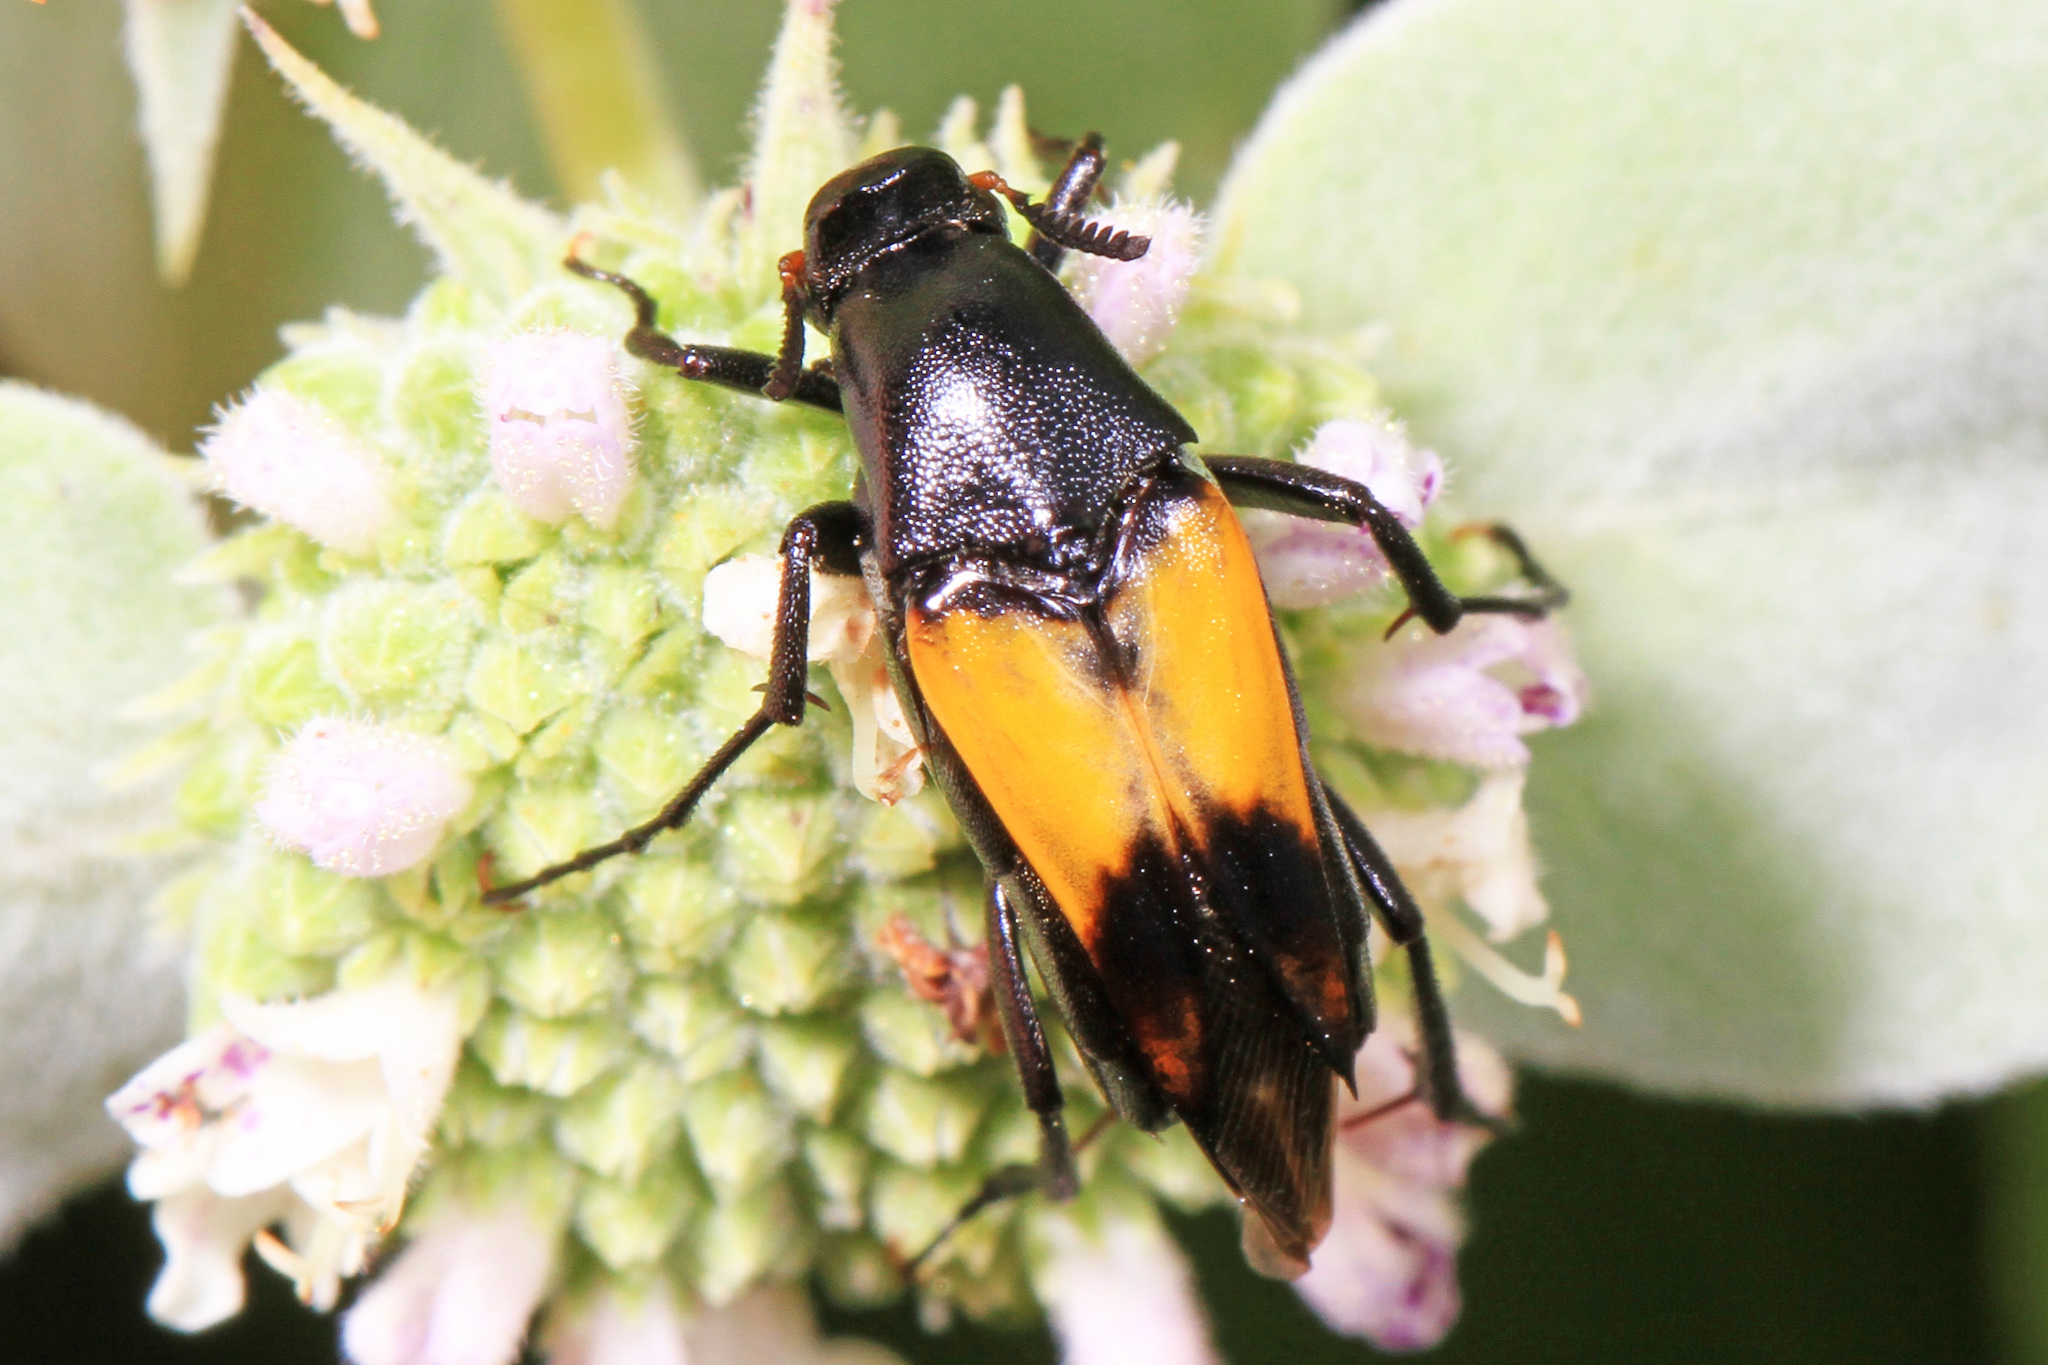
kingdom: Animalia
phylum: Arthropoda
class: Insecta
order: Coleoptera
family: Ripiphoridae
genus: Macrosiagon
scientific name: Macrosiagon dimidiata
